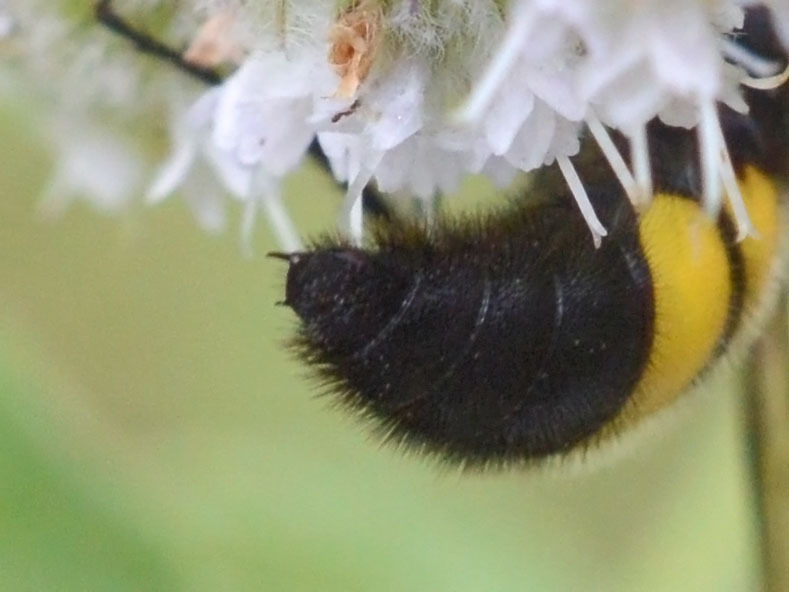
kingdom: Animalia
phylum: Arthropoda
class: Insecta
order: Hymenoptera
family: Scoliidae
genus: Scolia
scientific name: Scolia hirta
